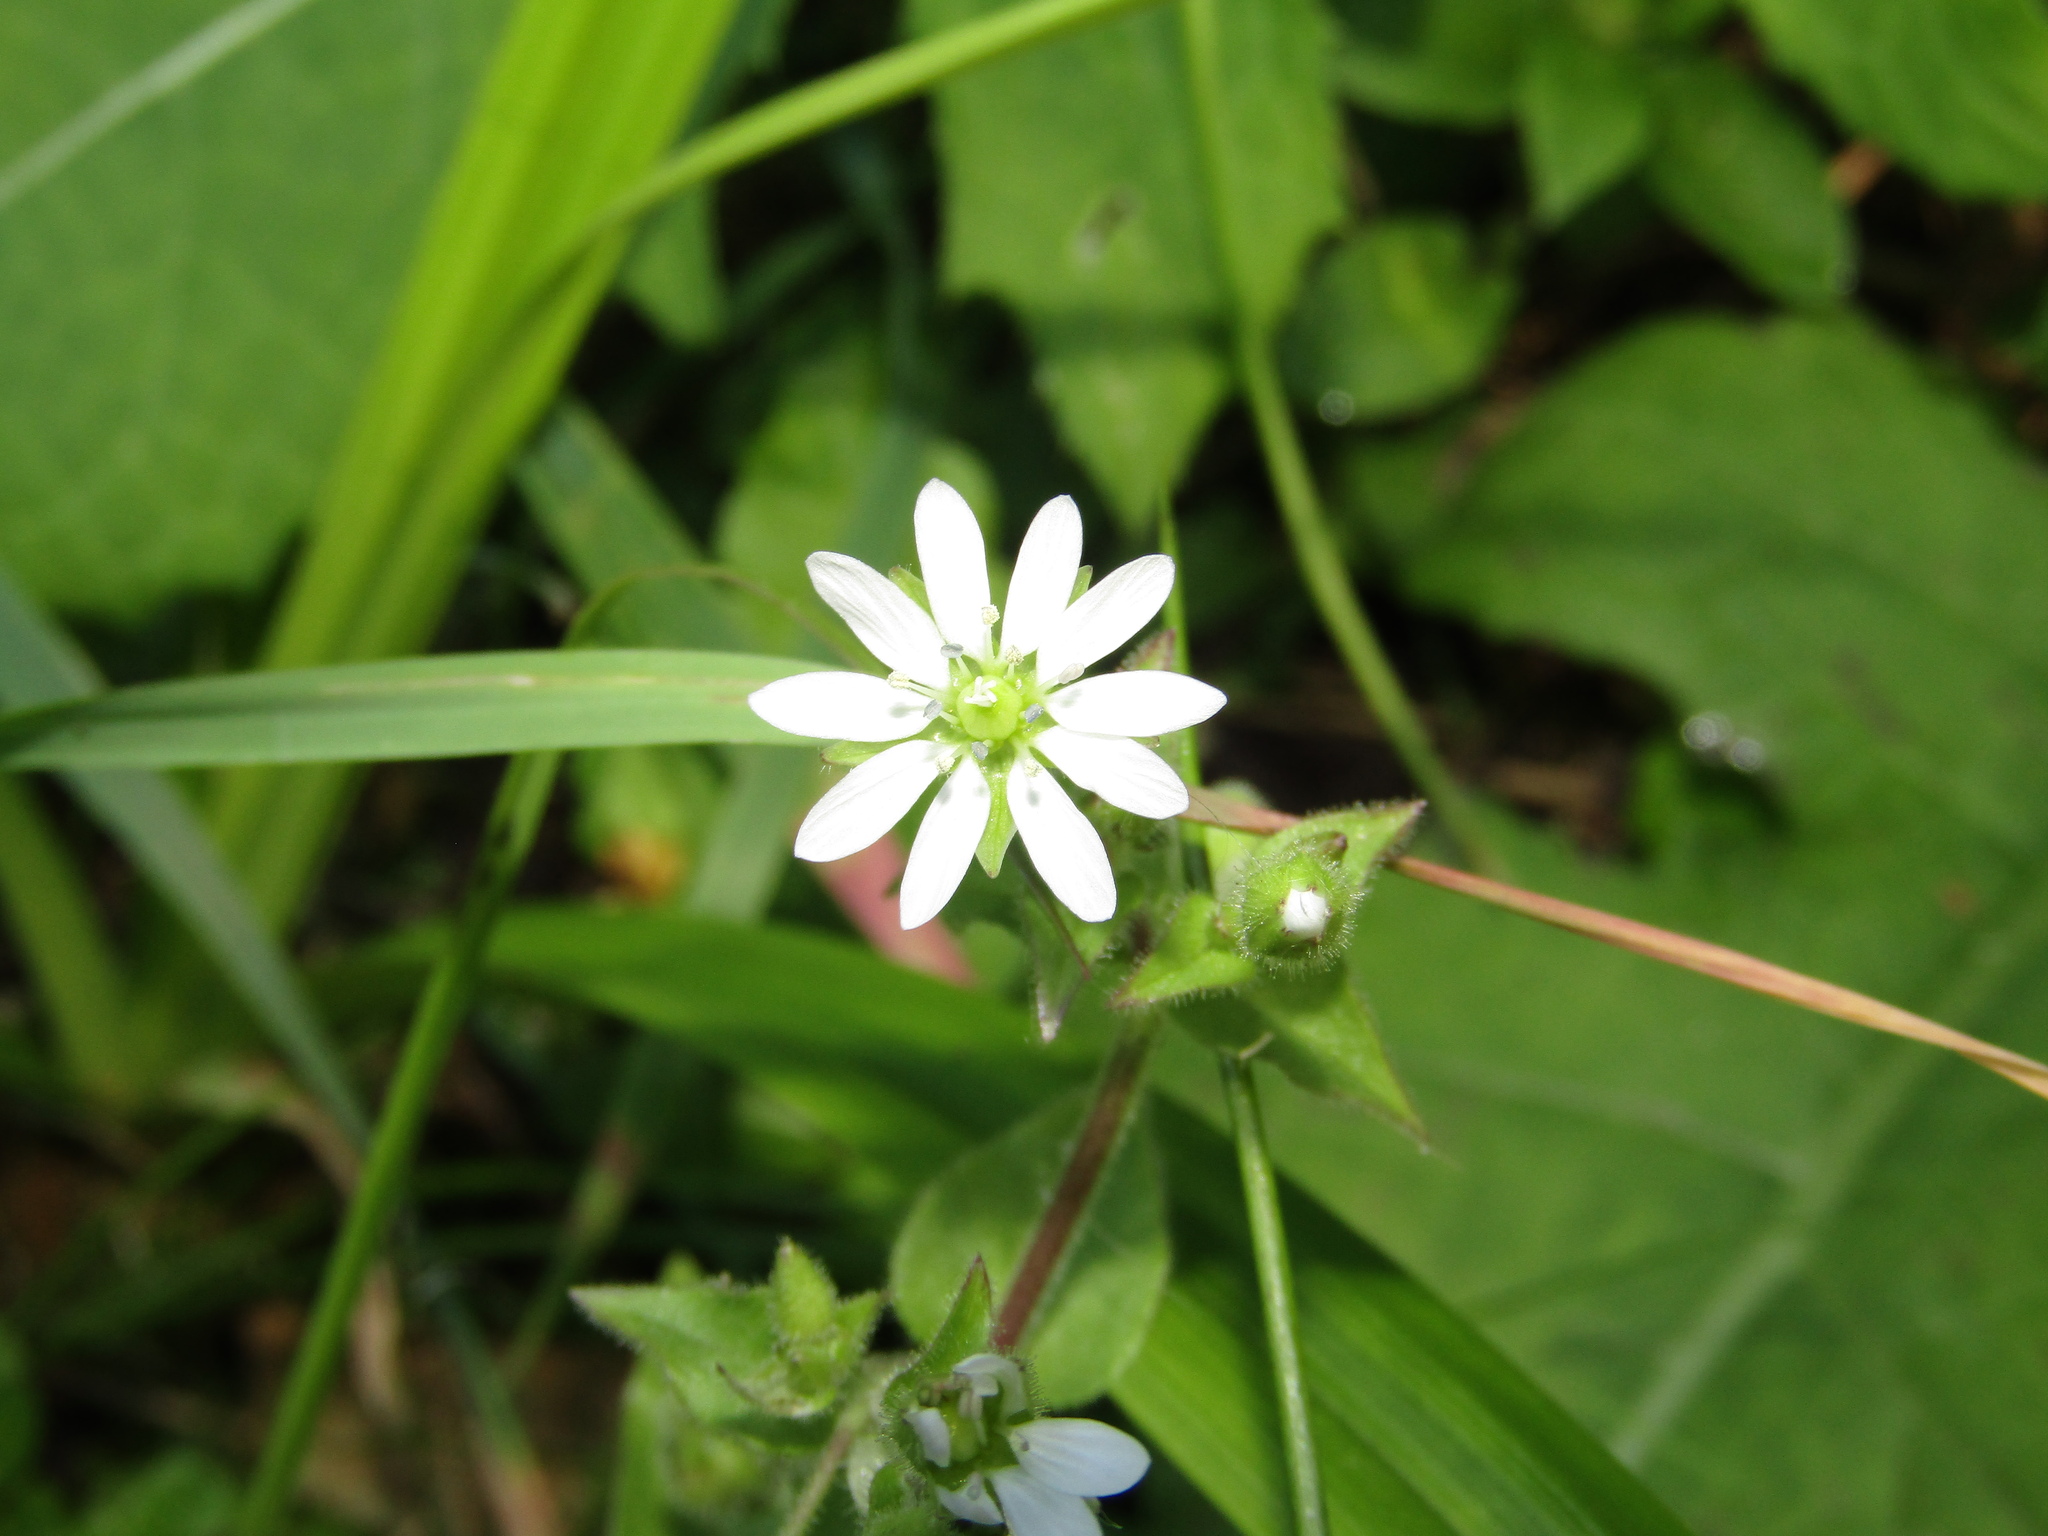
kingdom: Plantae
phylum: Tracheophyta
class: Magnoliopsida
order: Caryophyllales
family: Caryophyllaceae
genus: Stellaria
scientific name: Stellaria aquatica
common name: Water chickweed
